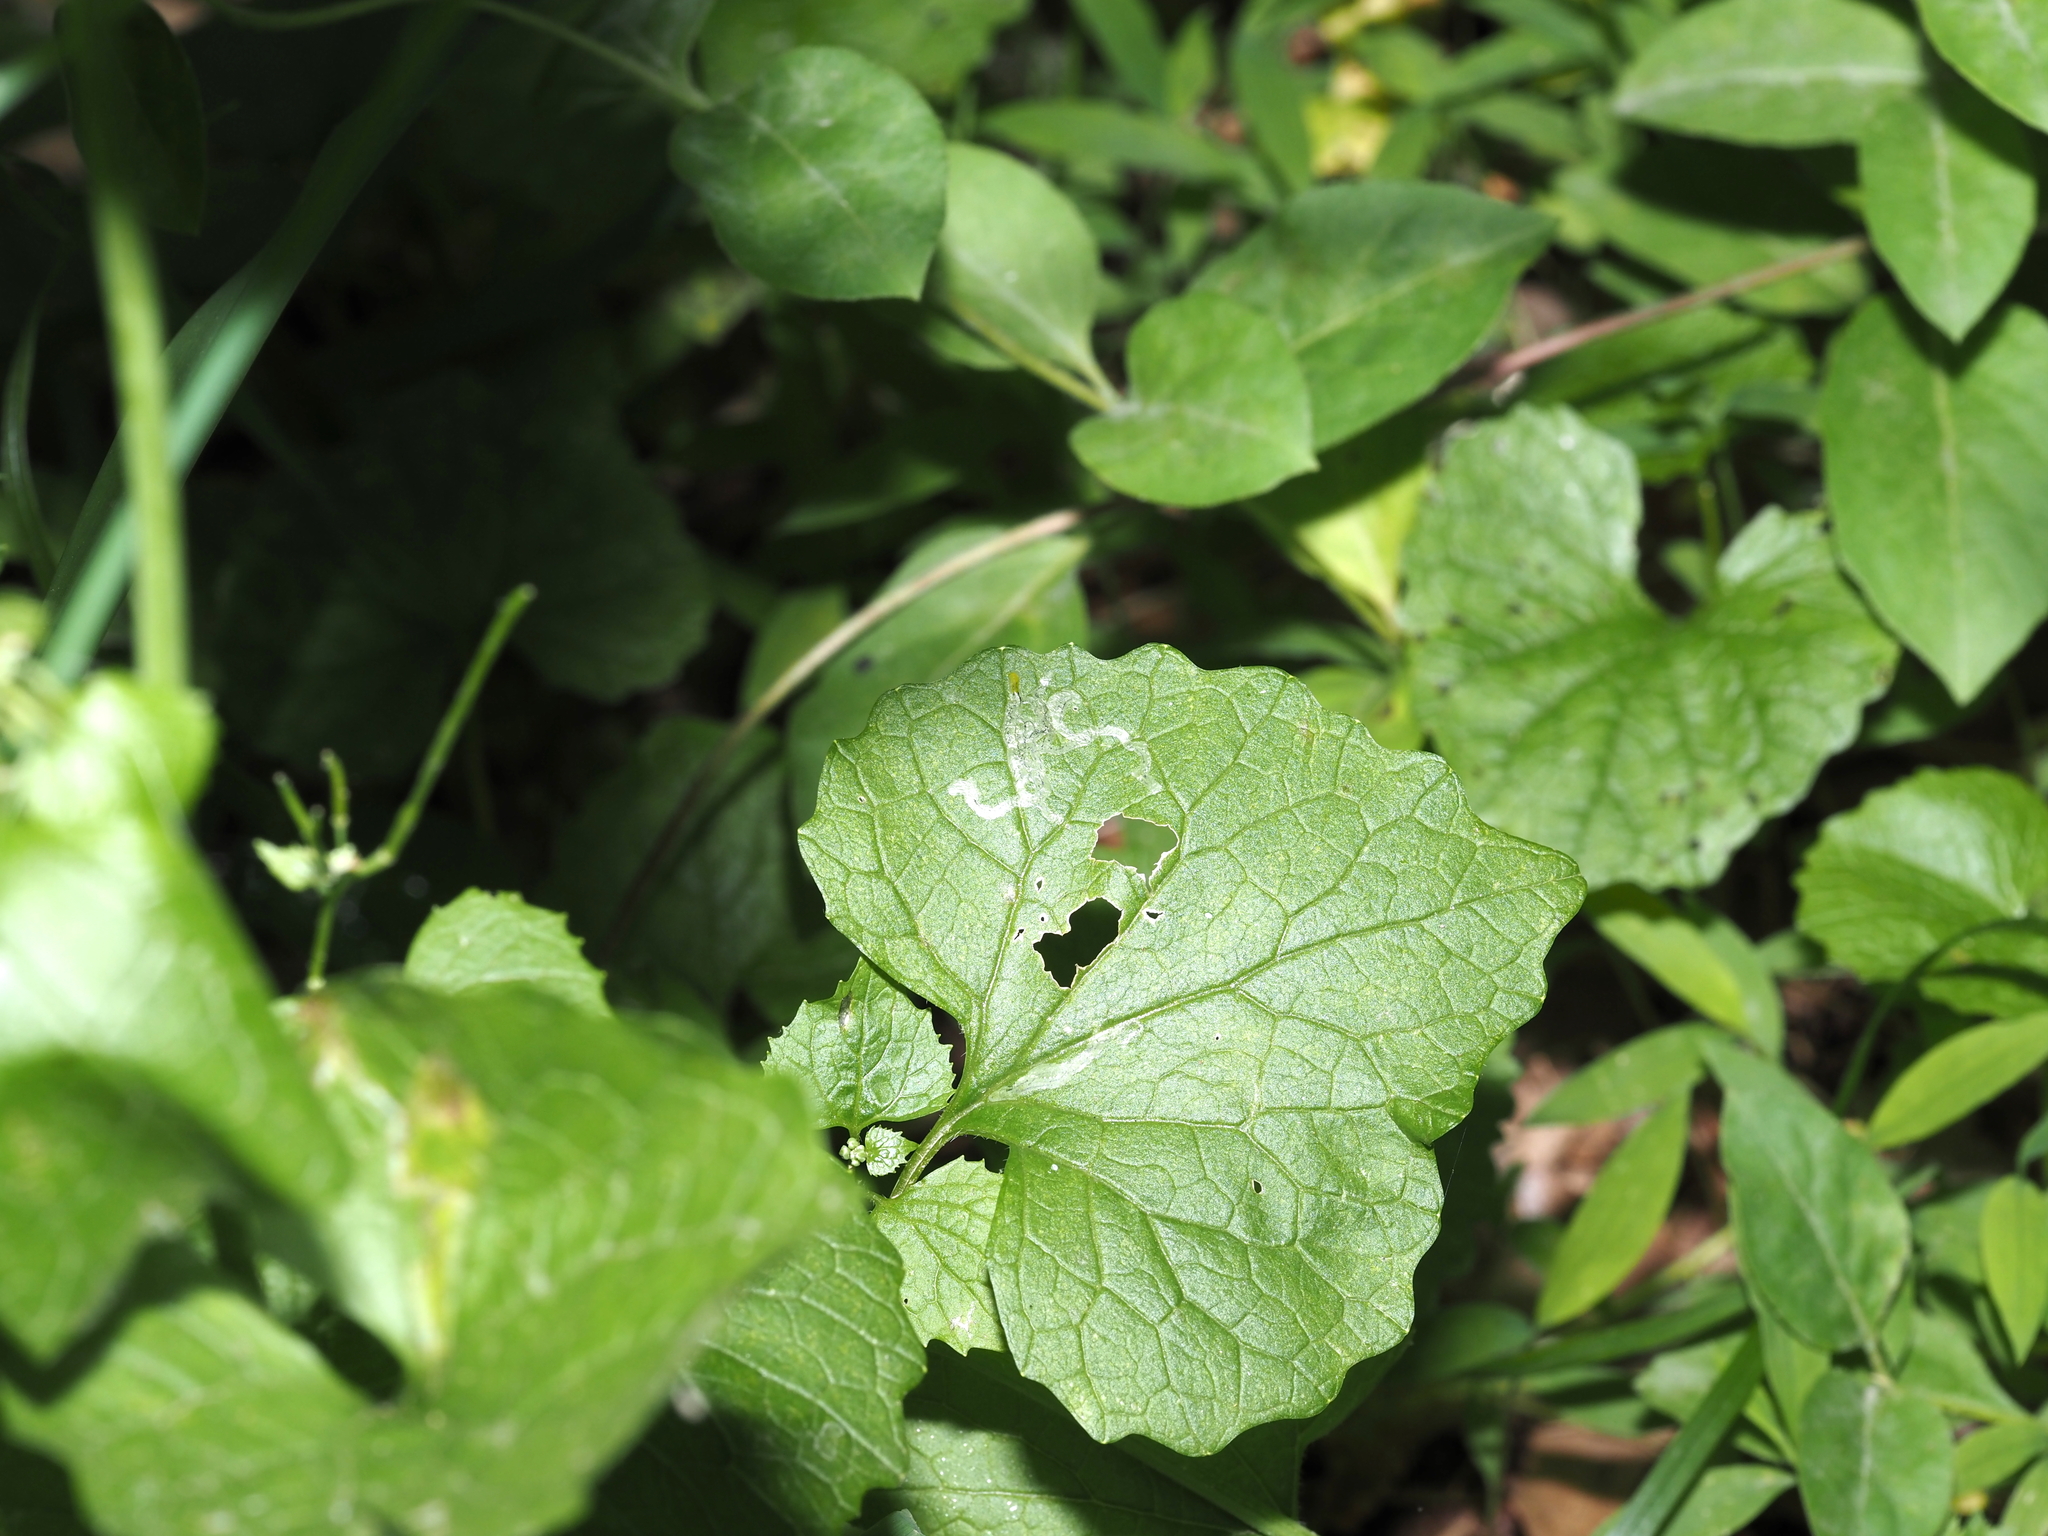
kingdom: Animalia
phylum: Arthropoda
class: Insecta
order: Diptera
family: Agromyzidae
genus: Liriomyza
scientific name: Liriomyza brassicae
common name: Serpentine leaf miner
